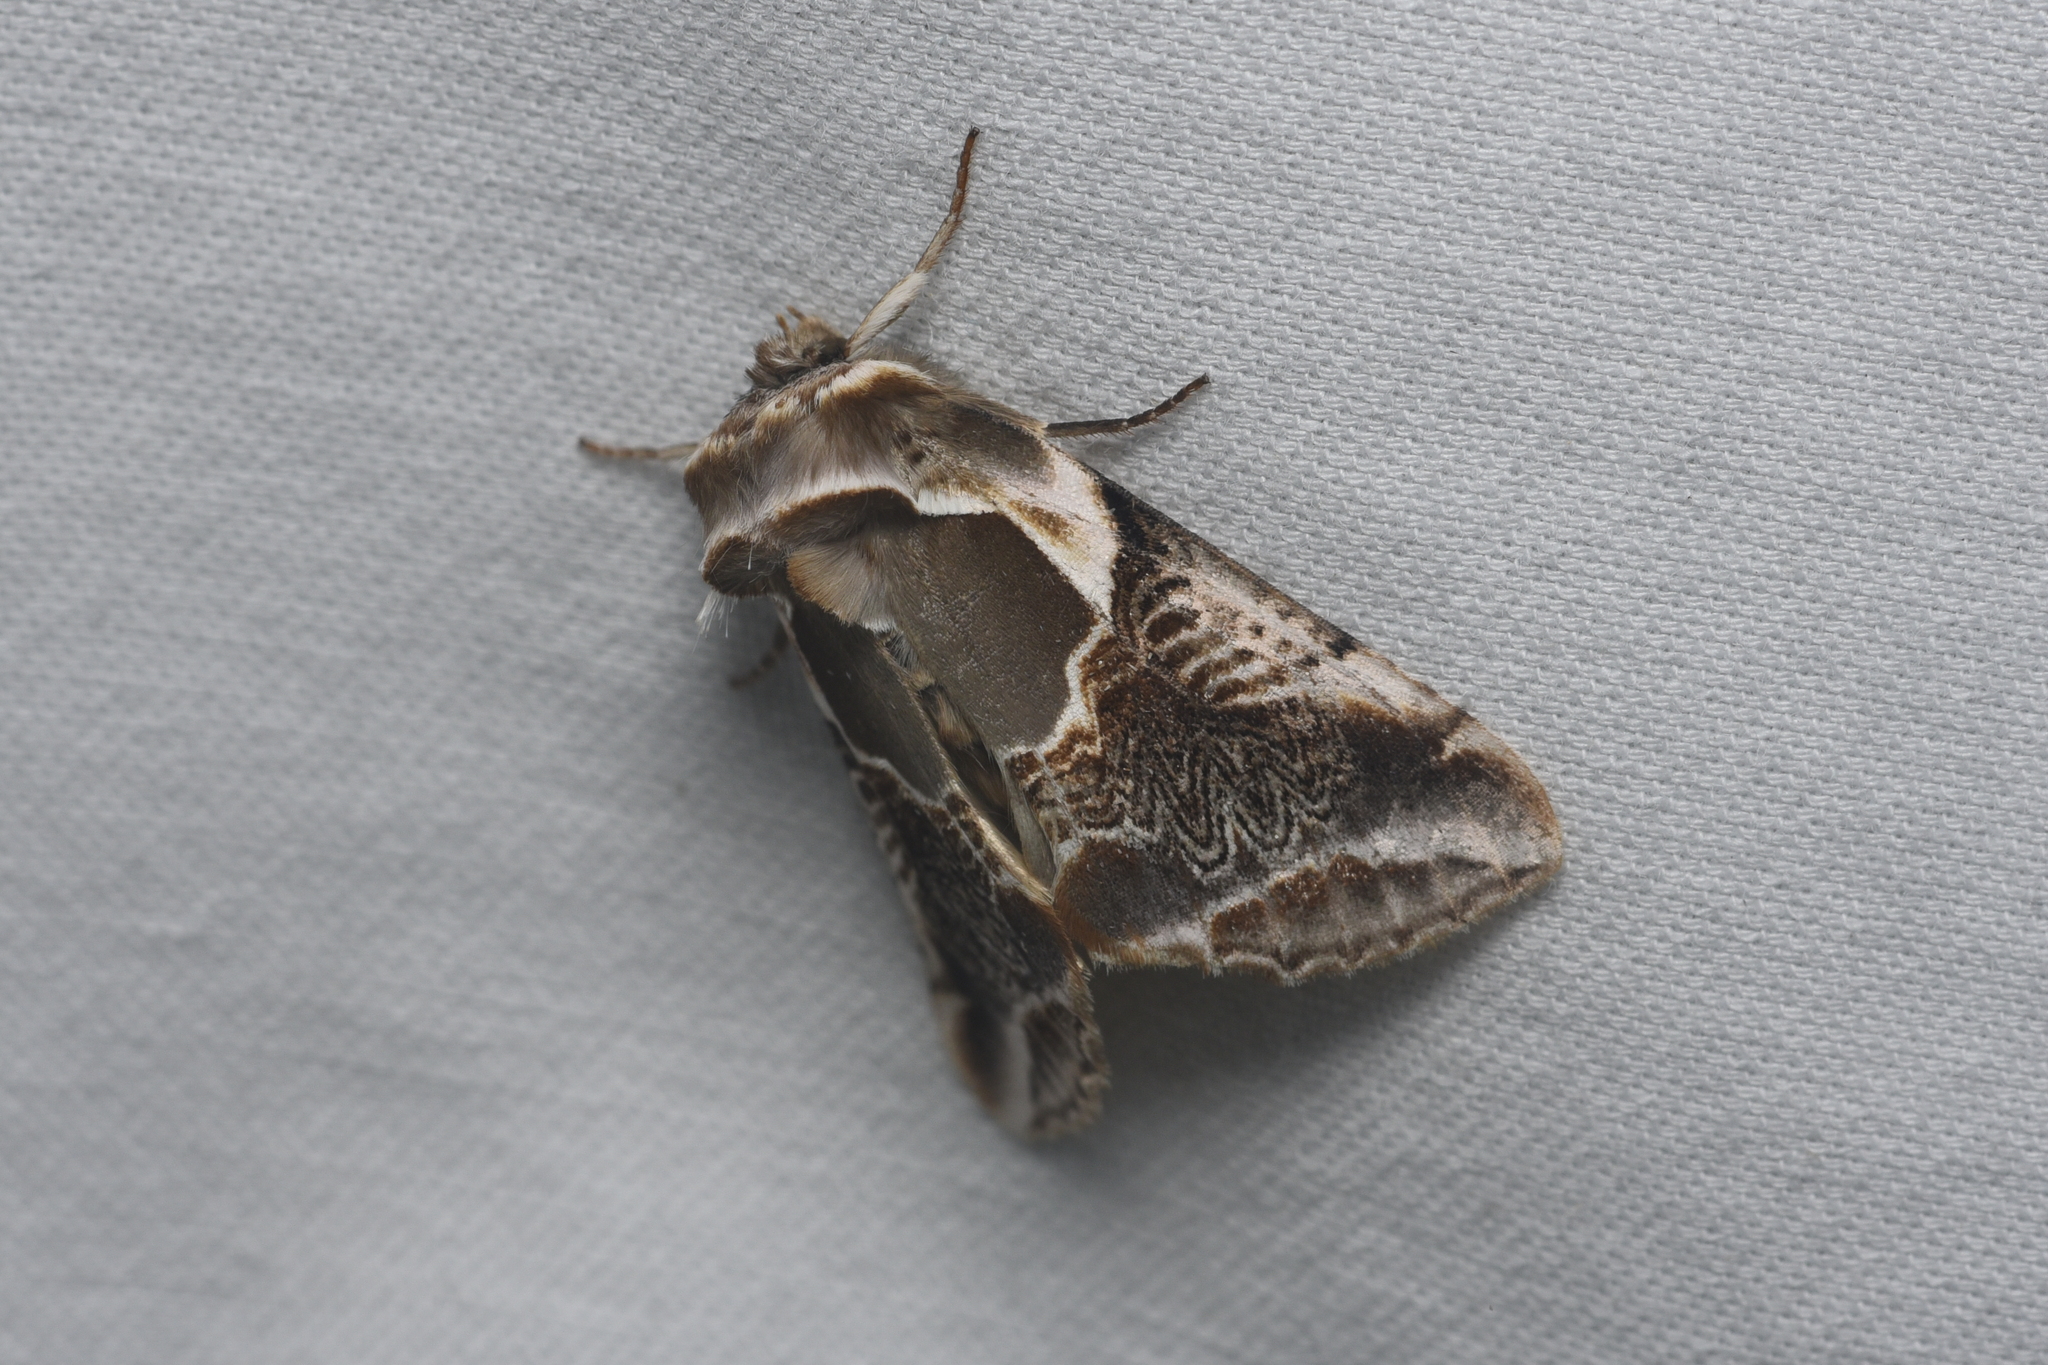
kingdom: Animalia
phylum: Arthropoda
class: Insecta
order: Lepidoptera
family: Drepanidae
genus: Habrosyne
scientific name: Habrosyne scripta
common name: Lettered habrosyne moth
